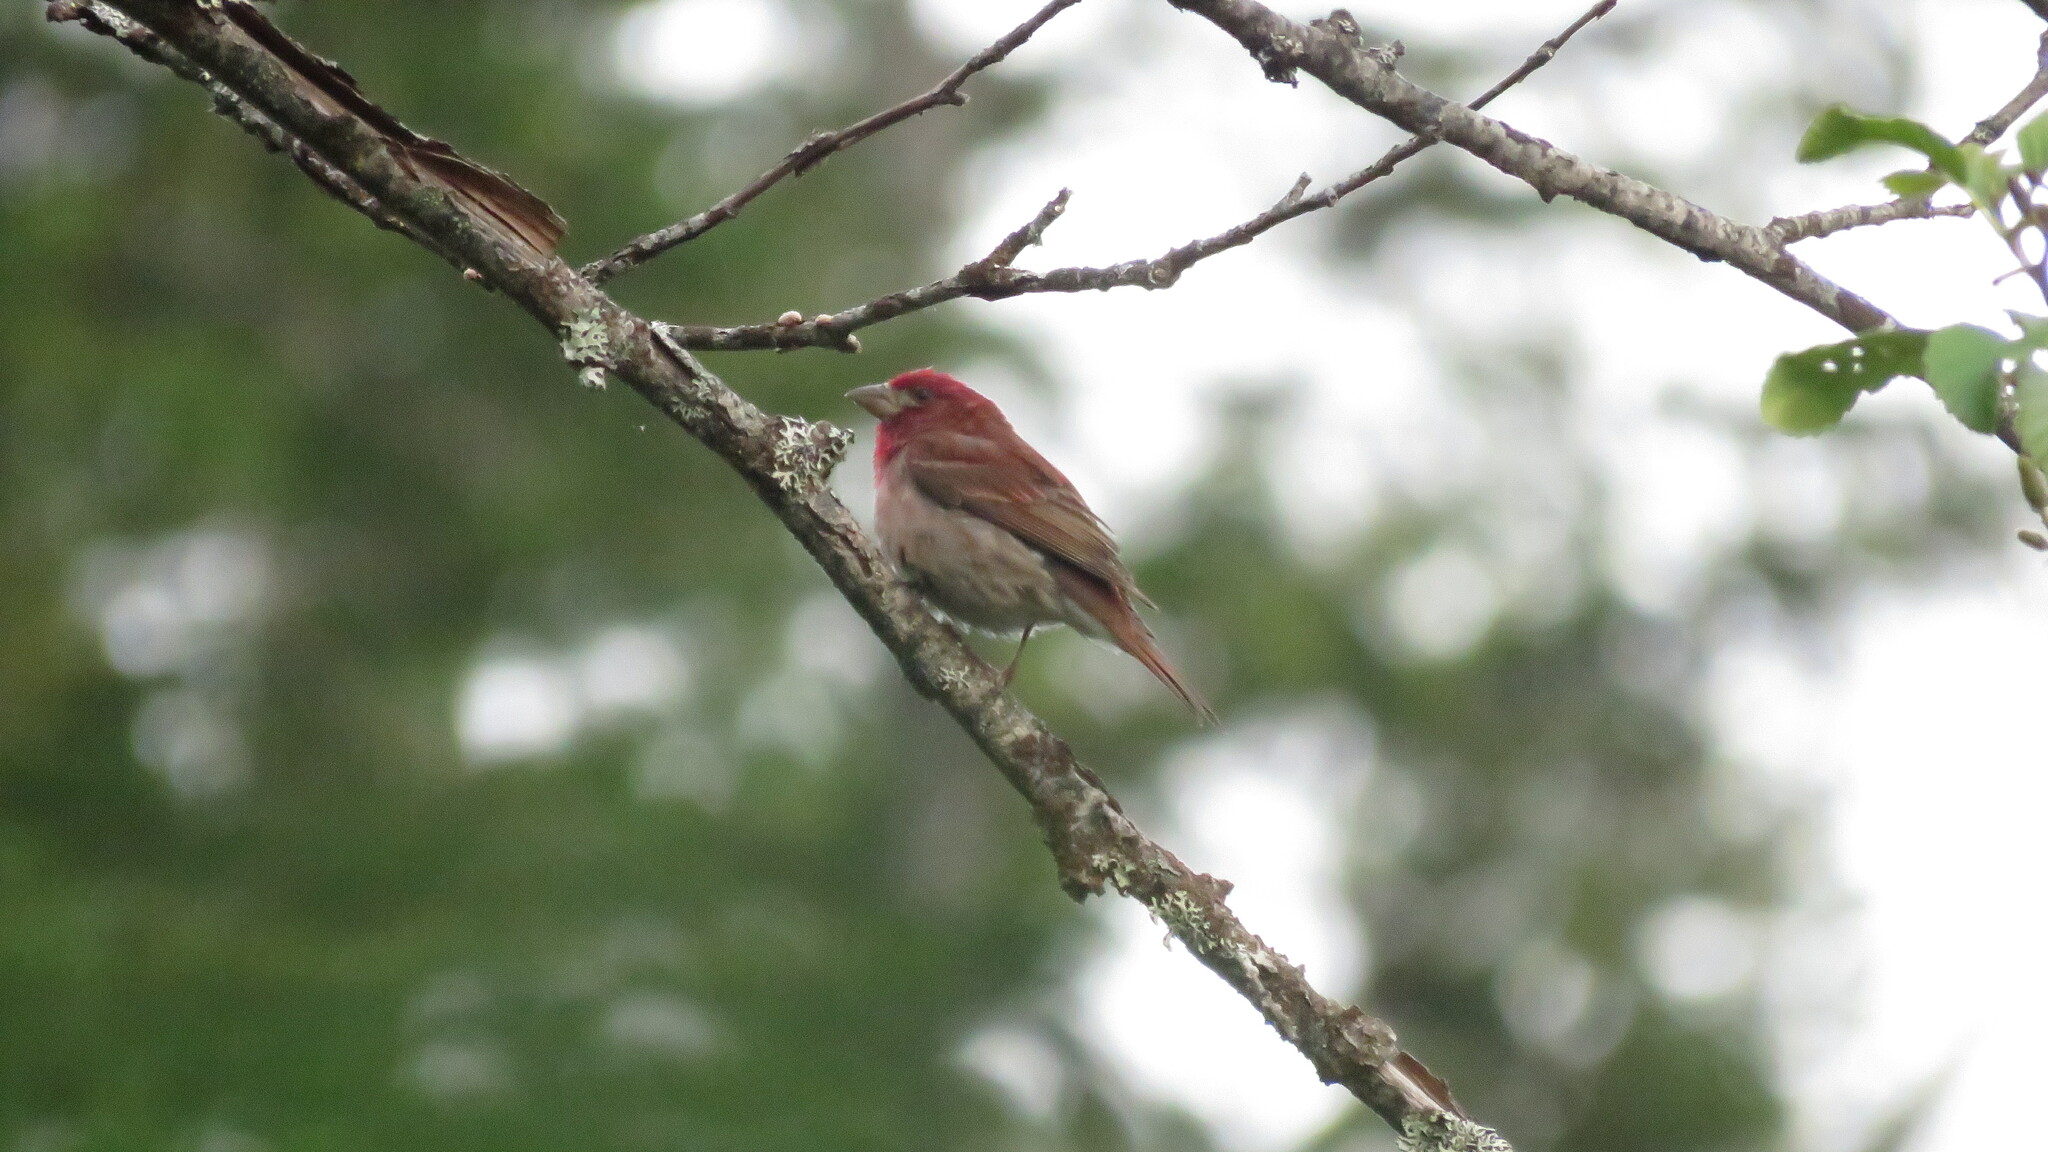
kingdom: Animalia
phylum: Chordata
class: Aves
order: Passeriformes
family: Fringillidae
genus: Haemorhous
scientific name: Haemorhous purpureus
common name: Purple finch
